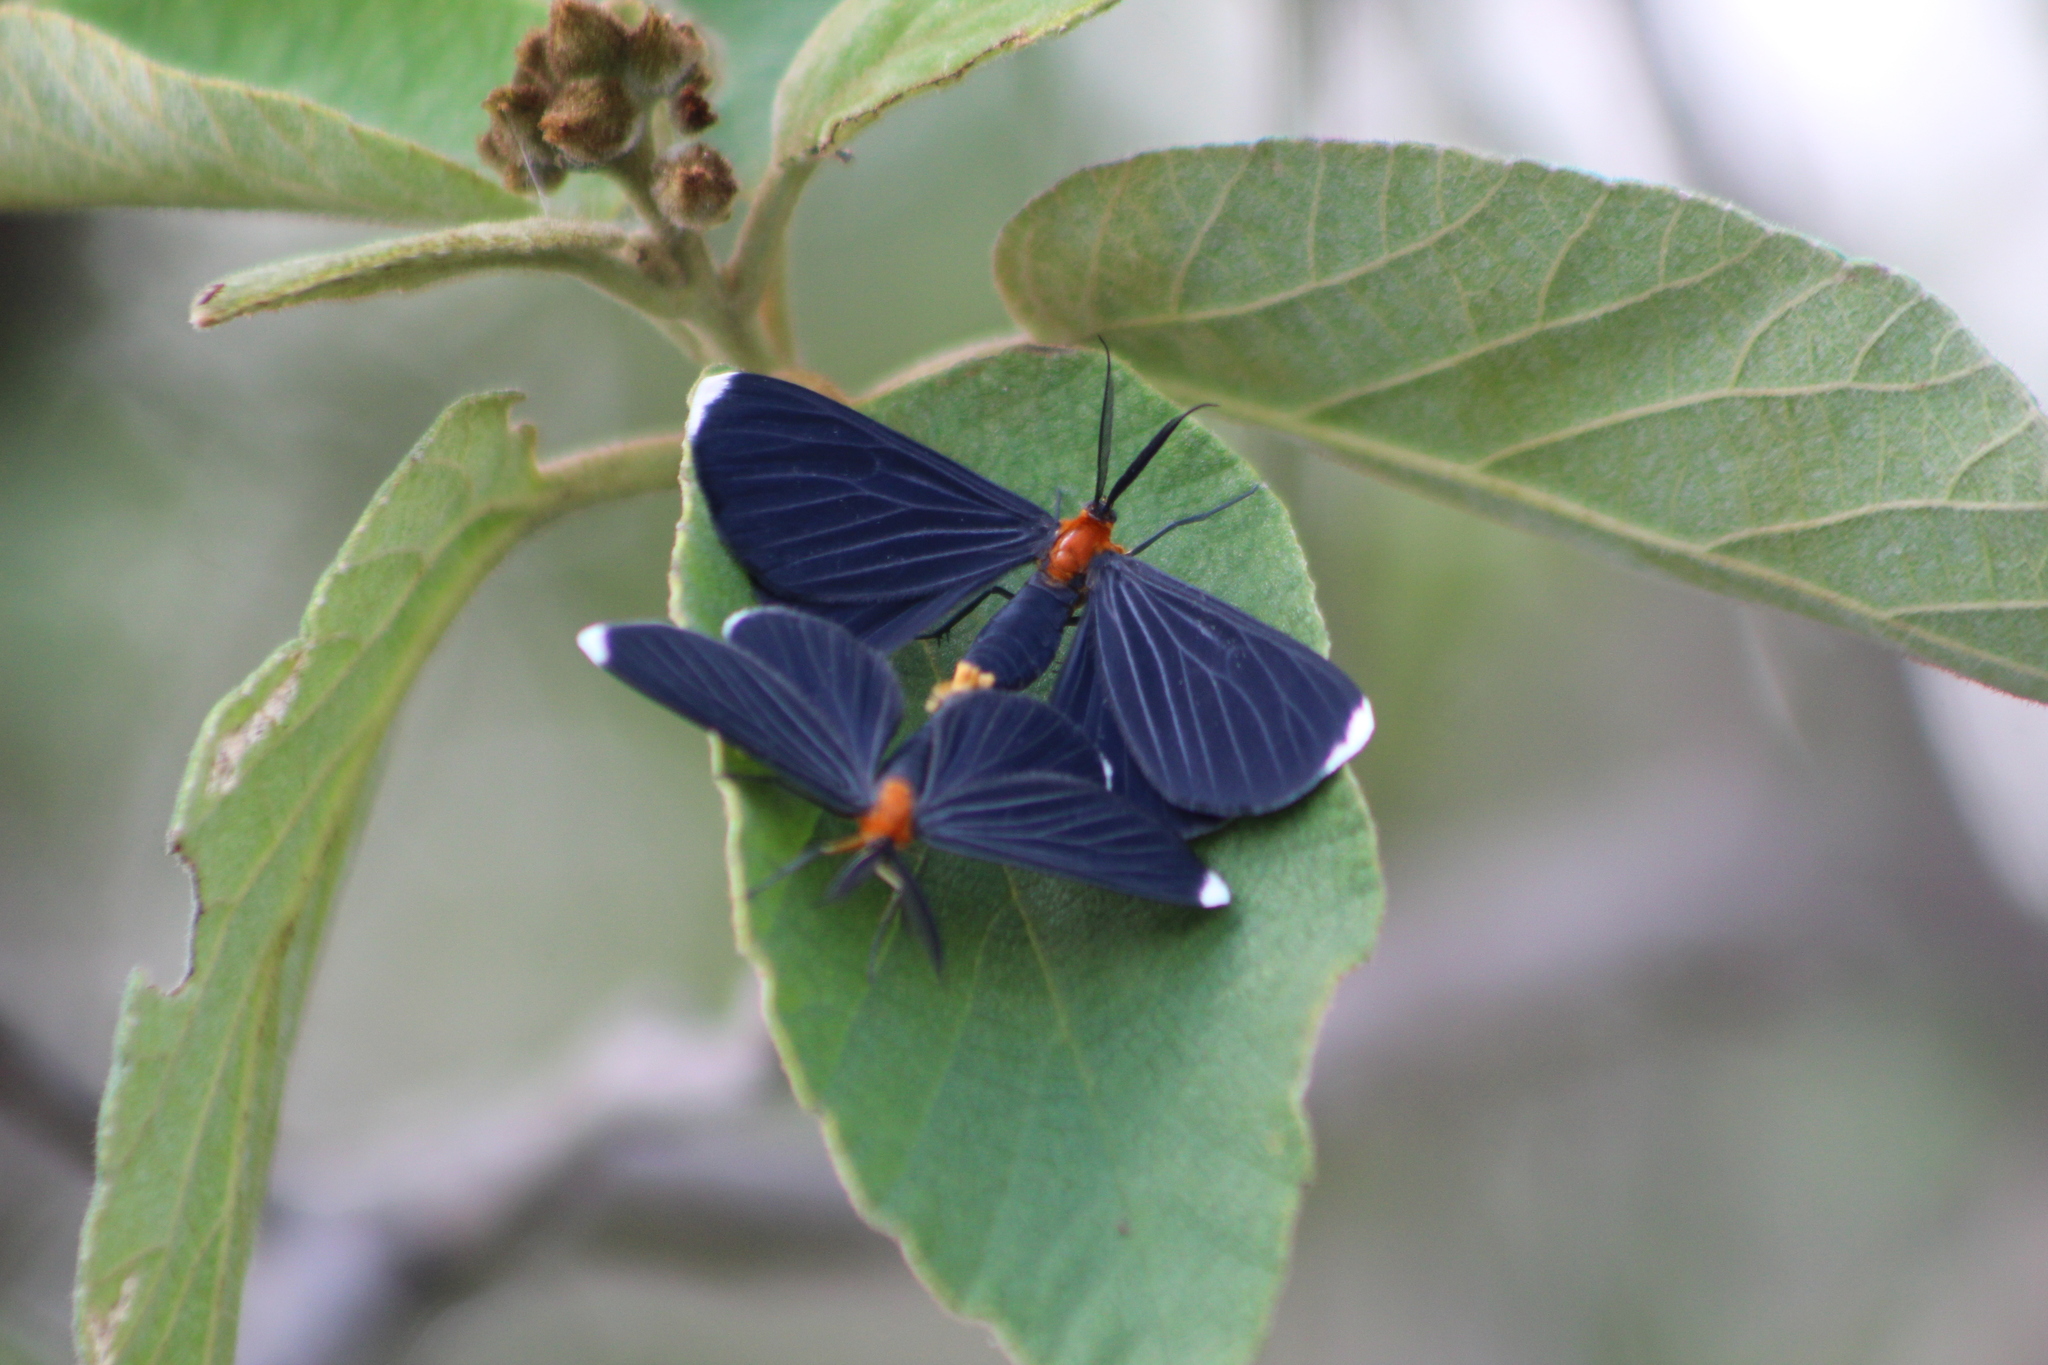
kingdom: Animalia
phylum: Arthropoda
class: Insecta
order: Lepidoptera
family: Geometridae
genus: Melanchroia
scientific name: Melanchroia chephise
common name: White-tipped black
